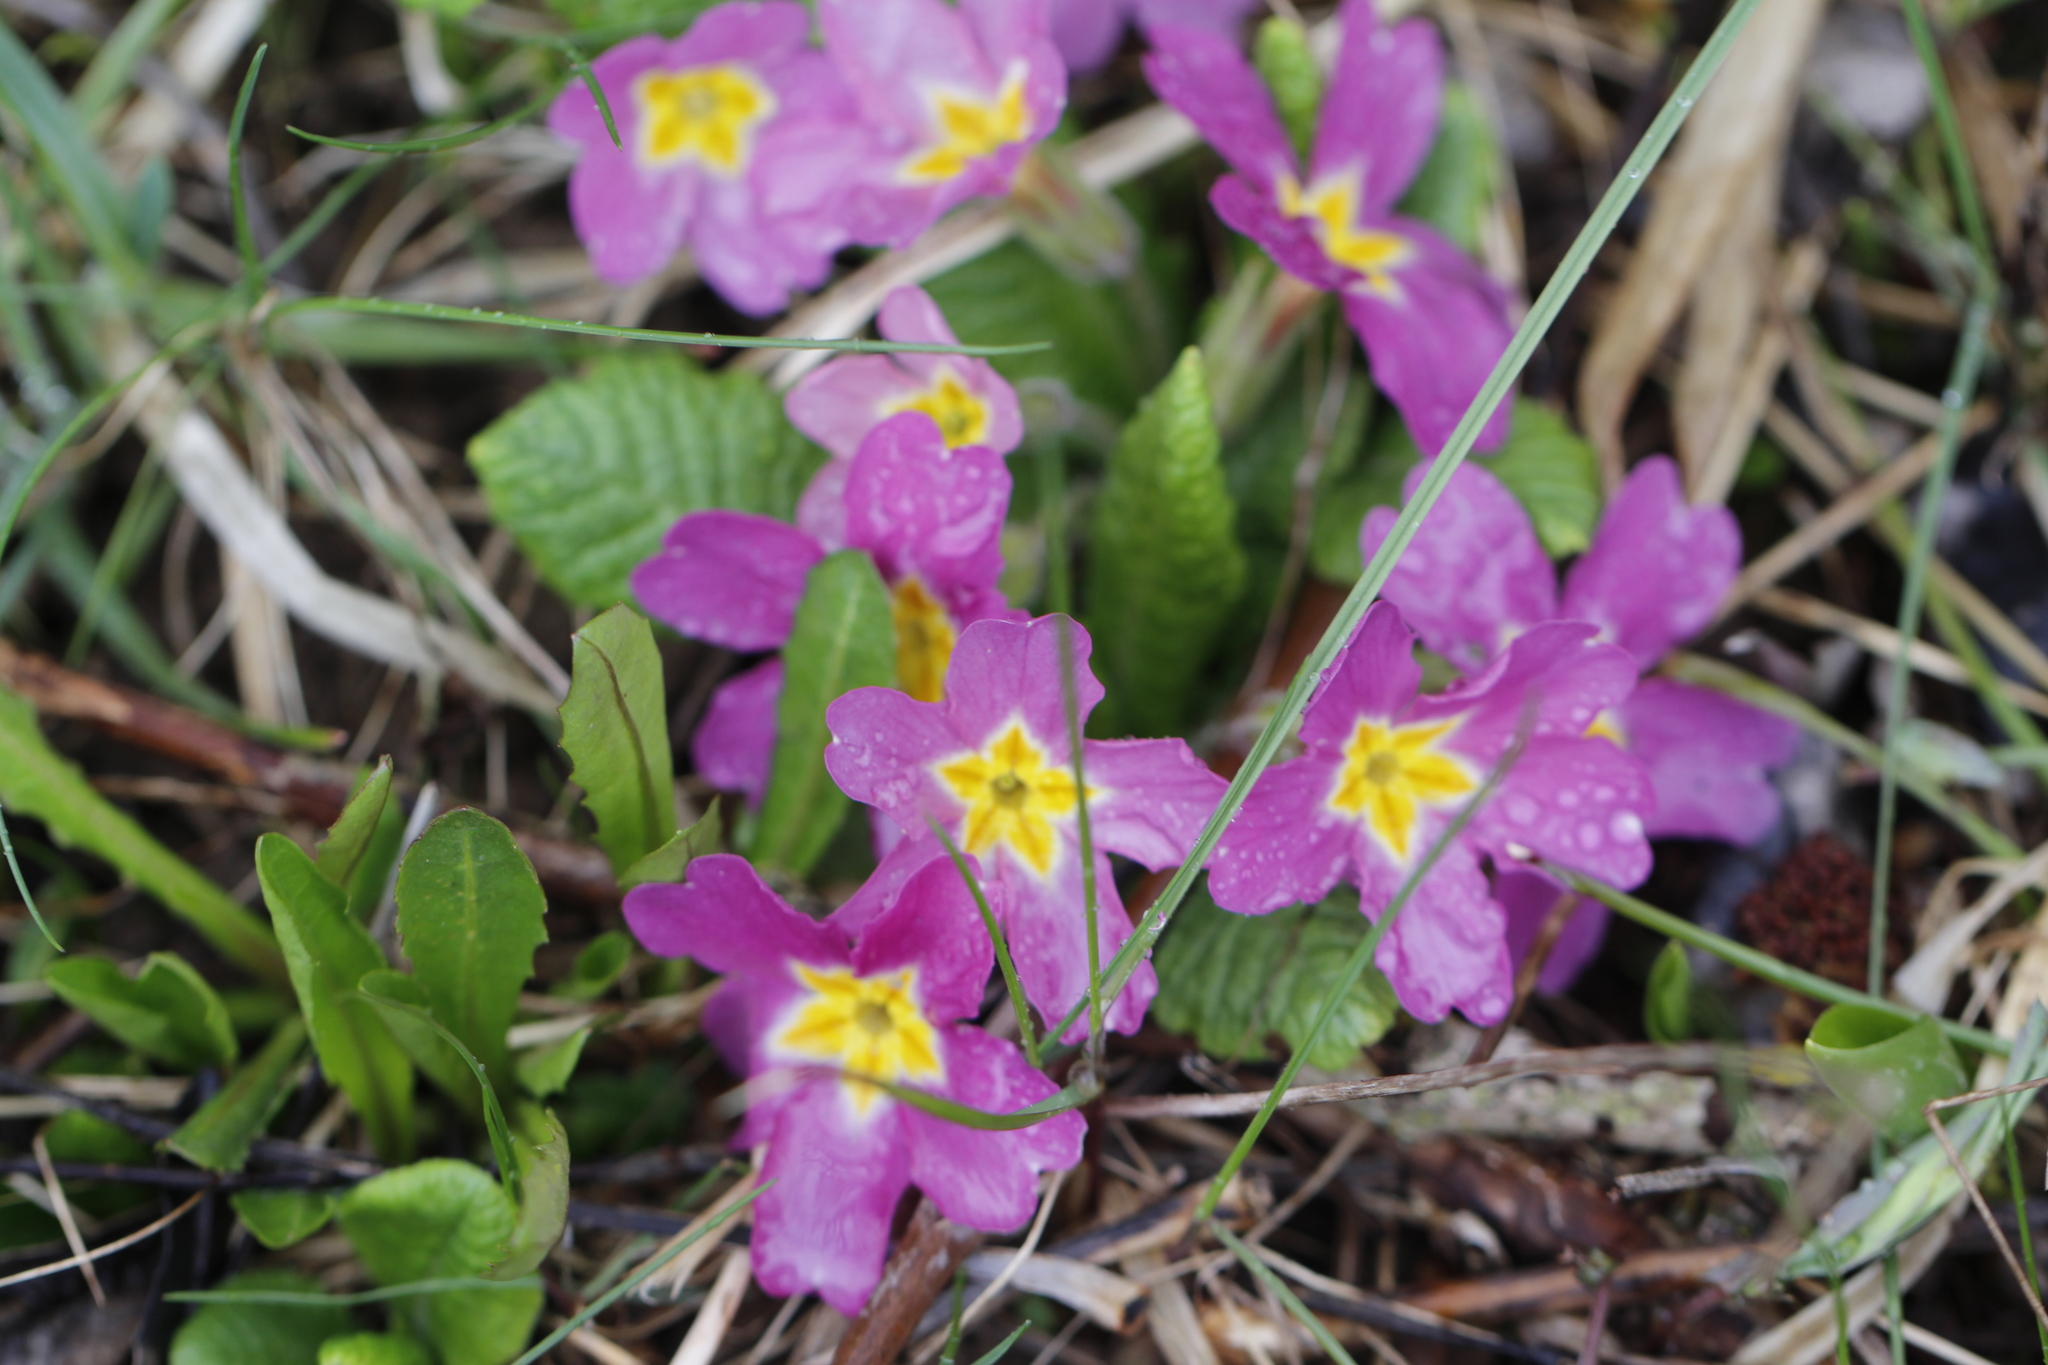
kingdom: Plantae
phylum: Tracheophyta
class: Magnoliopsida
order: Ericales
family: Primulaceae
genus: Primula
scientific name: Primula vulgaris
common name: Primrose
